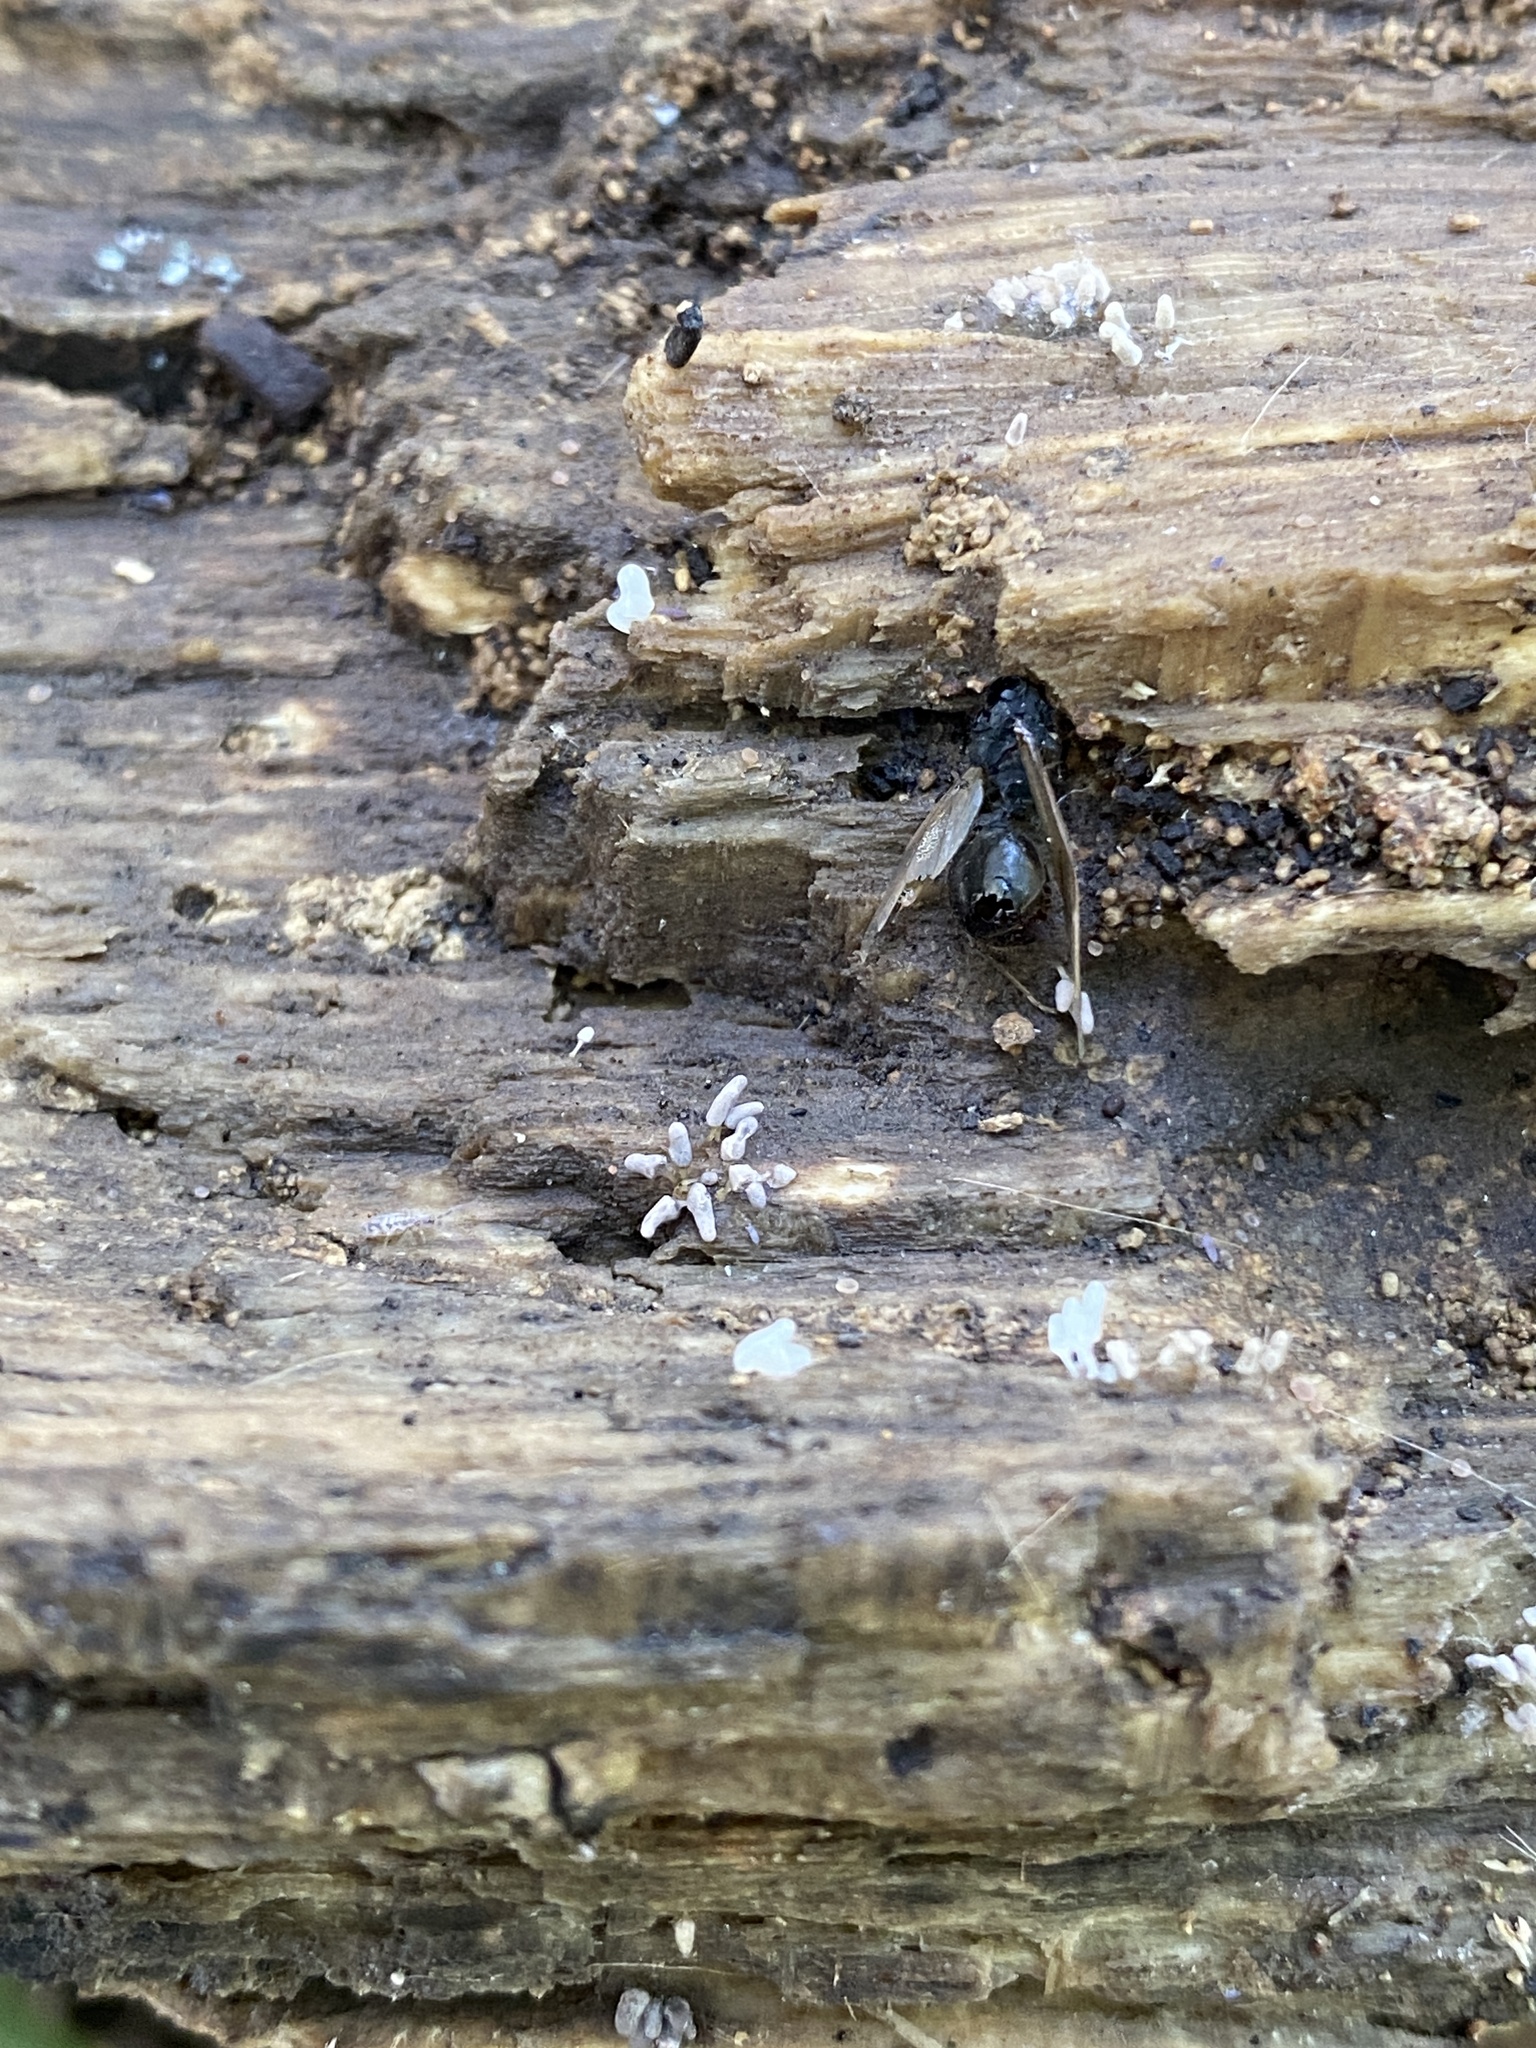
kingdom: Protozoa
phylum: Mycetozoa
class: Myxomycetes
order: Trichiales
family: Arcyriaceae
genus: Arcyria
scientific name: Arcyria cinerea
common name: White carnival candy slime mold
